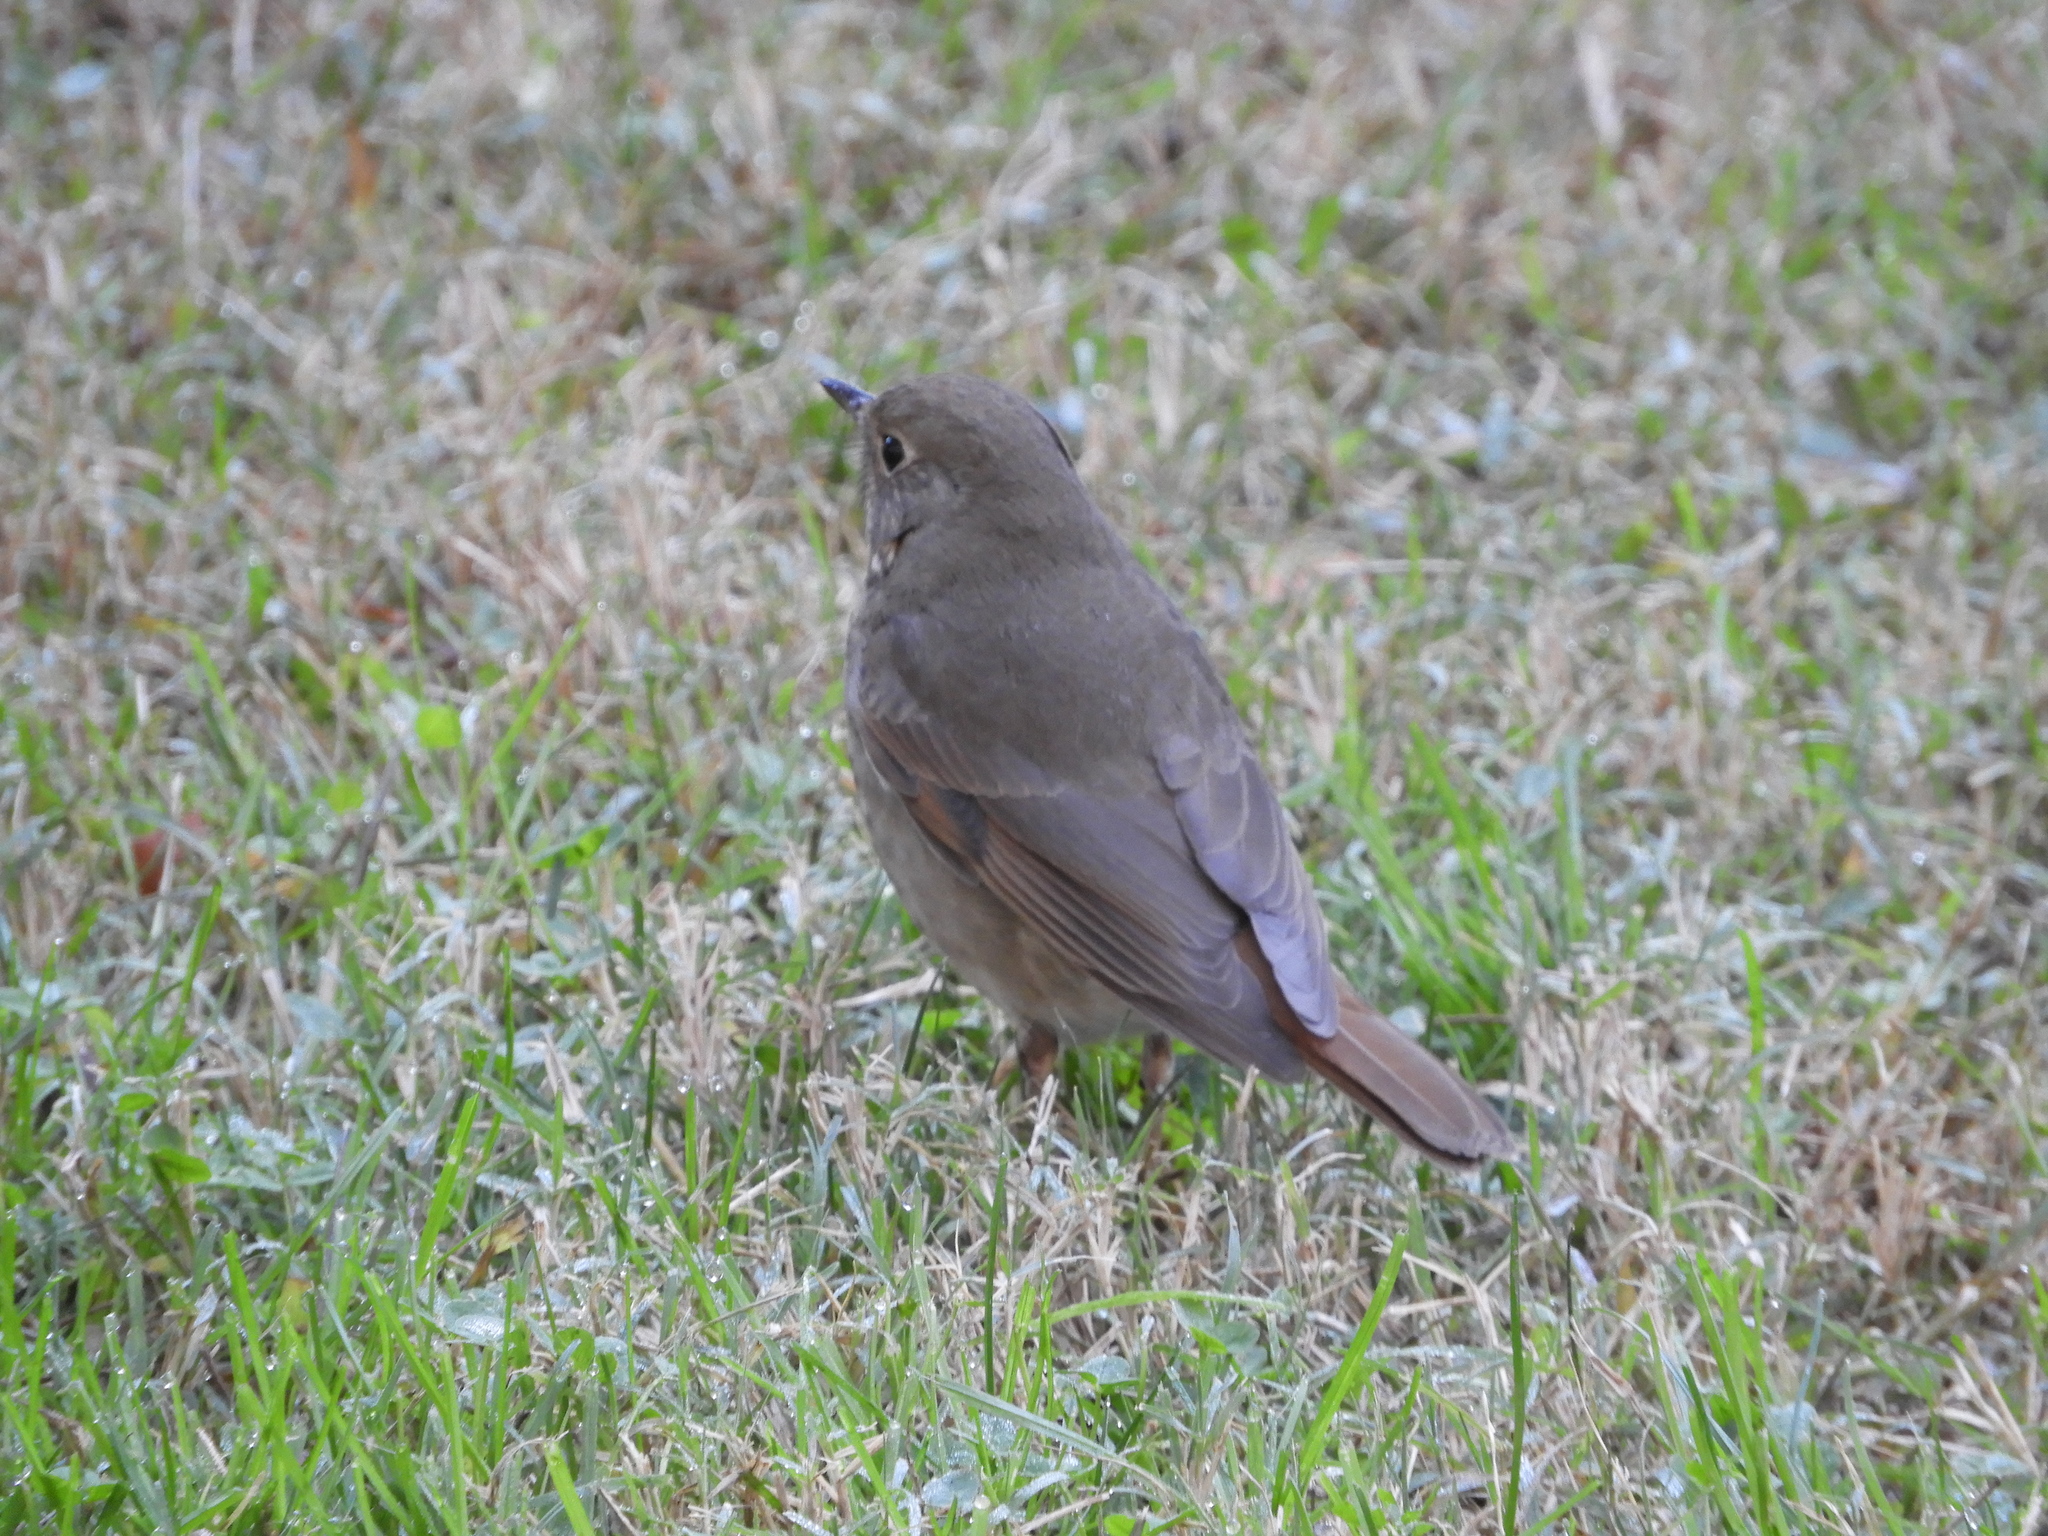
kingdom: Animalia
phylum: Chordata
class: Aves
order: Passeriformes
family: Turdidae
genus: Catharus
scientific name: Catharus guttatus
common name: Hermit thrush
